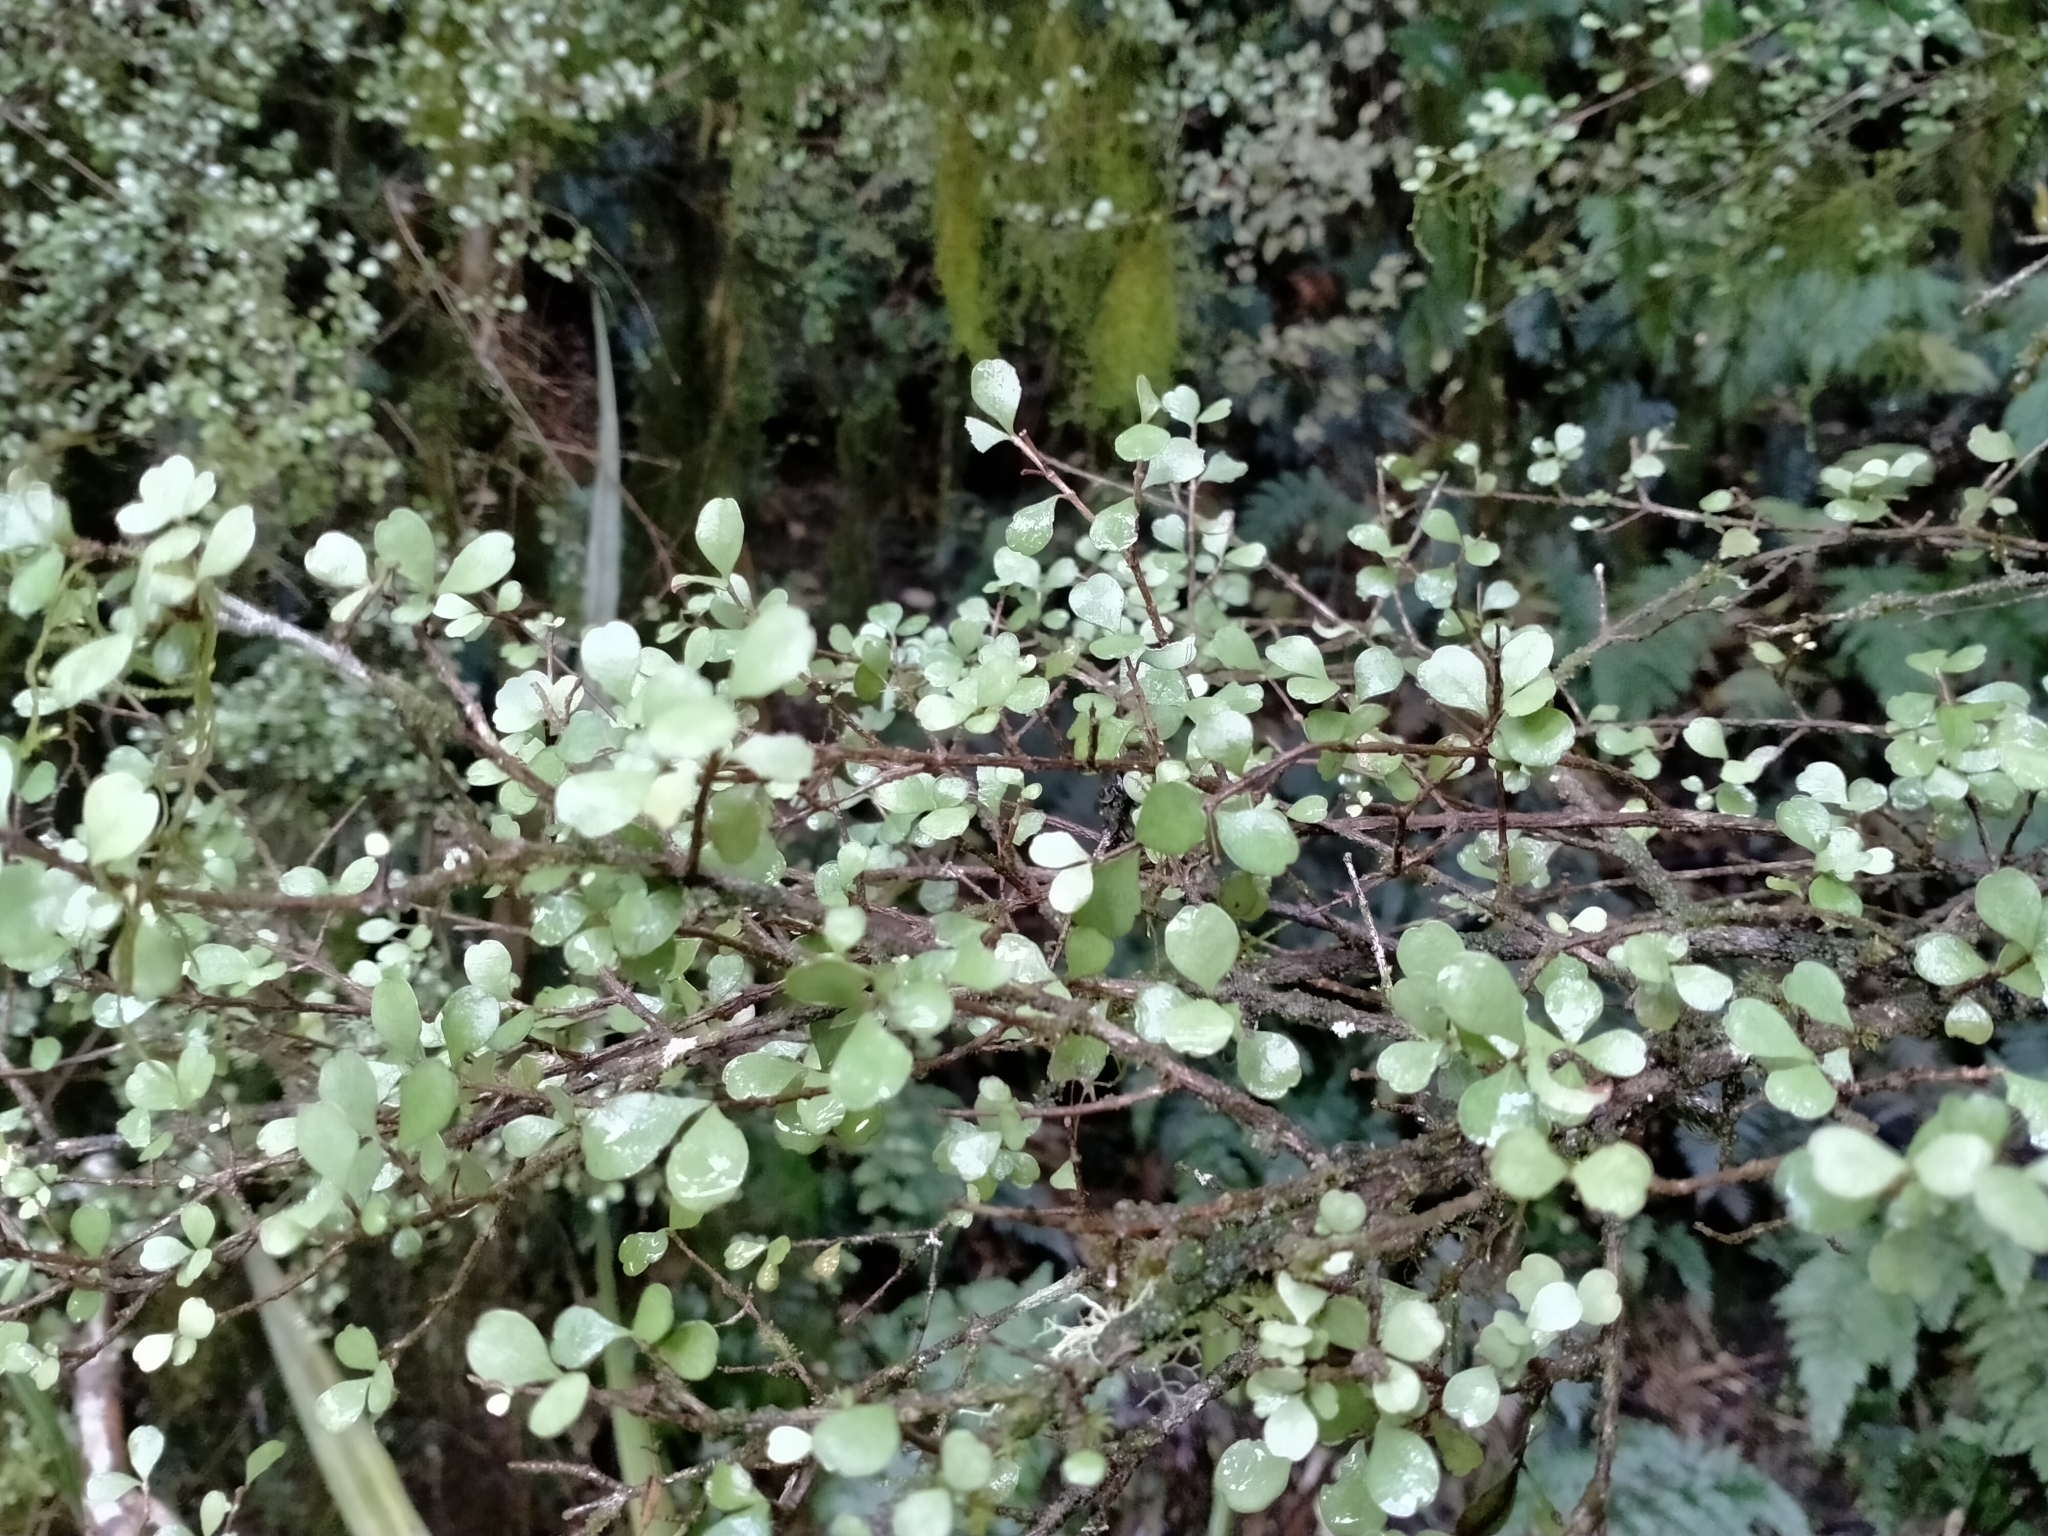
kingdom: Plantae
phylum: Tracheophyta
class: Magnoliopsida
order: Myrtales
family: Myrtaceae
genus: Lophomyrtus
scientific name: Lophomyrtus obcordata
